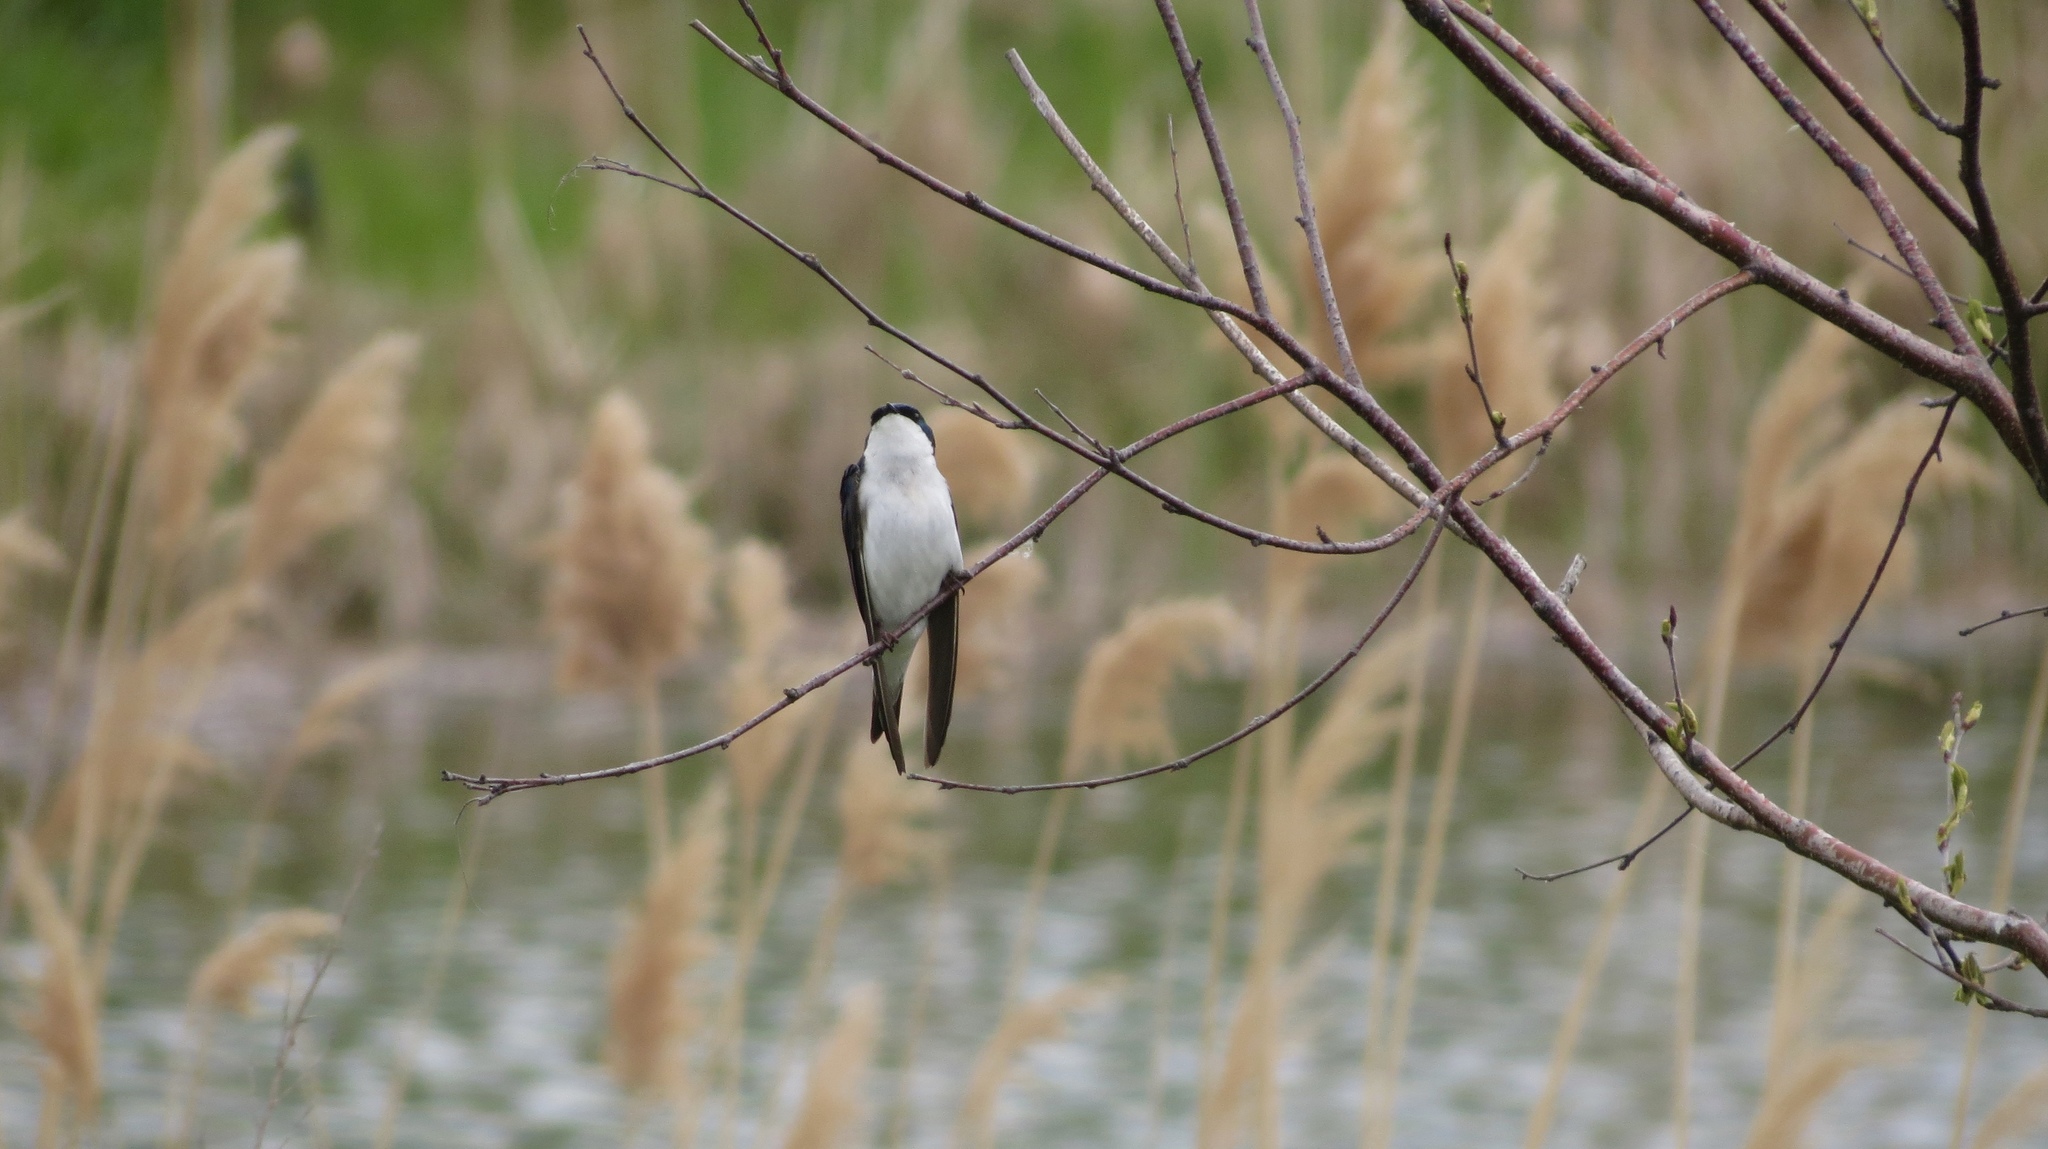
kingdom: Animalia
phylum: Chordata
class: Aves
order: Passeriformes
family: Hirundinidae
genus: Tachycineta
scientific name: Tachycineta bicolor
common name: Tree swallow
